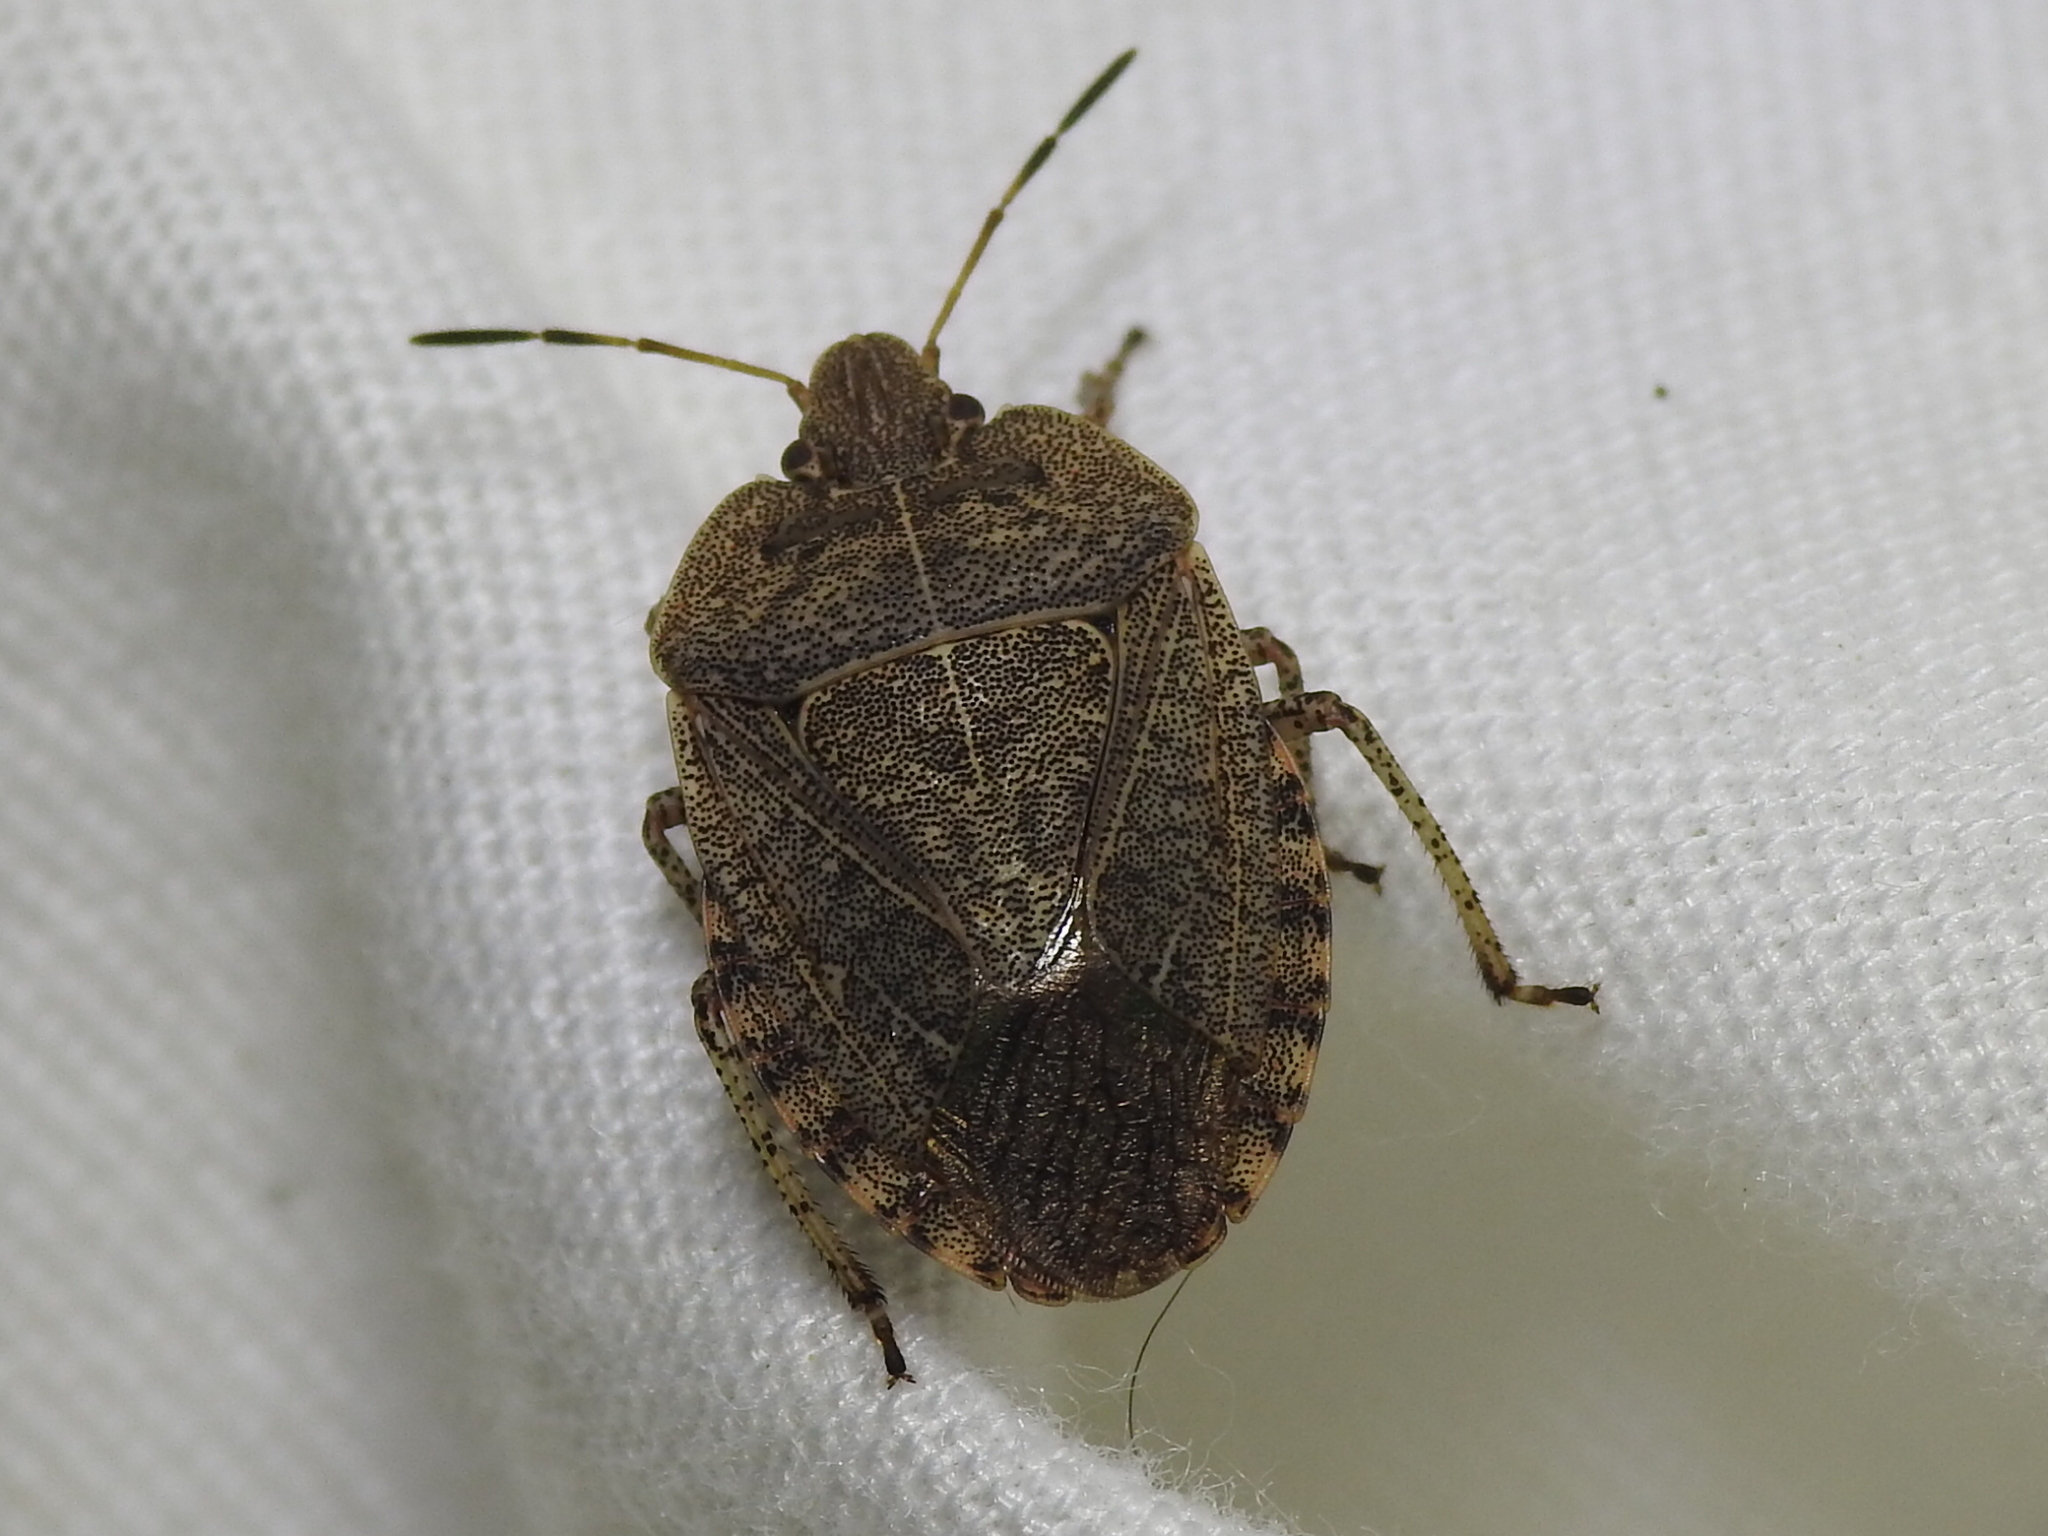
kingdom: Animalia
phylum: Arthropoda
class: Insecta
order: Hemiptera
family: Pentatomidae
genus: Menecles
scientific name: Menecles insertus
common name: Elf shoe stink bug
